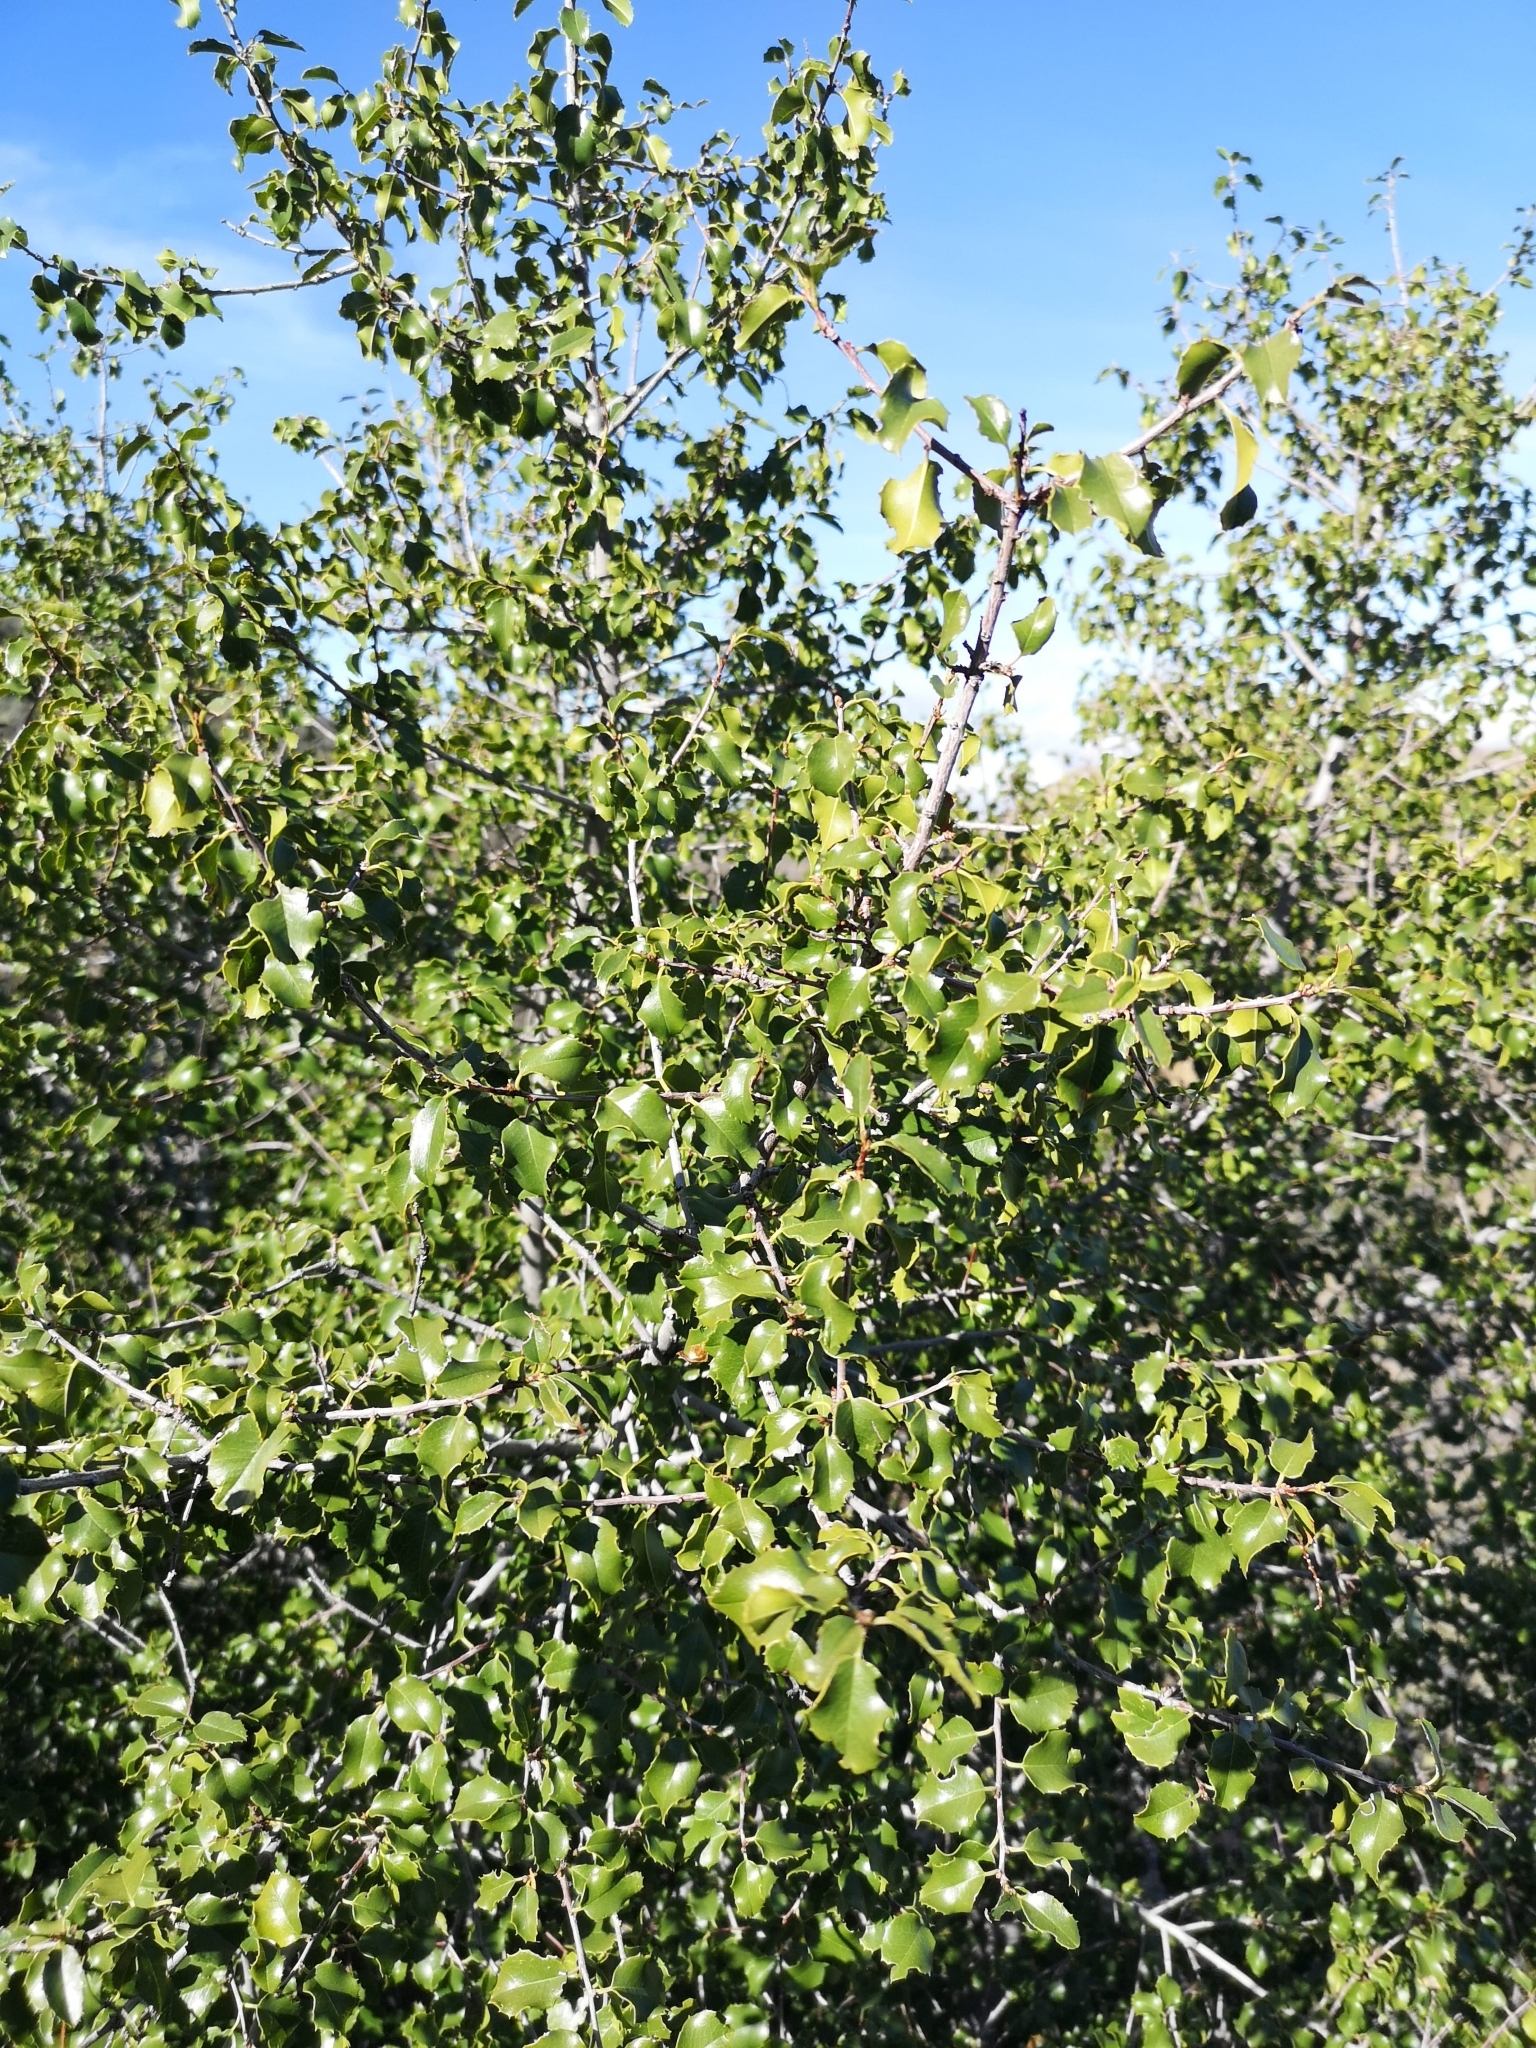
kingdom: Plantae
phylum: Tracheophyta
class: Magnoliopsida
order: Rosales
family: Rosaceae
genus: Prunus
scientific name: Prunus ilicifolia
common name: Hollyleaf cherry
